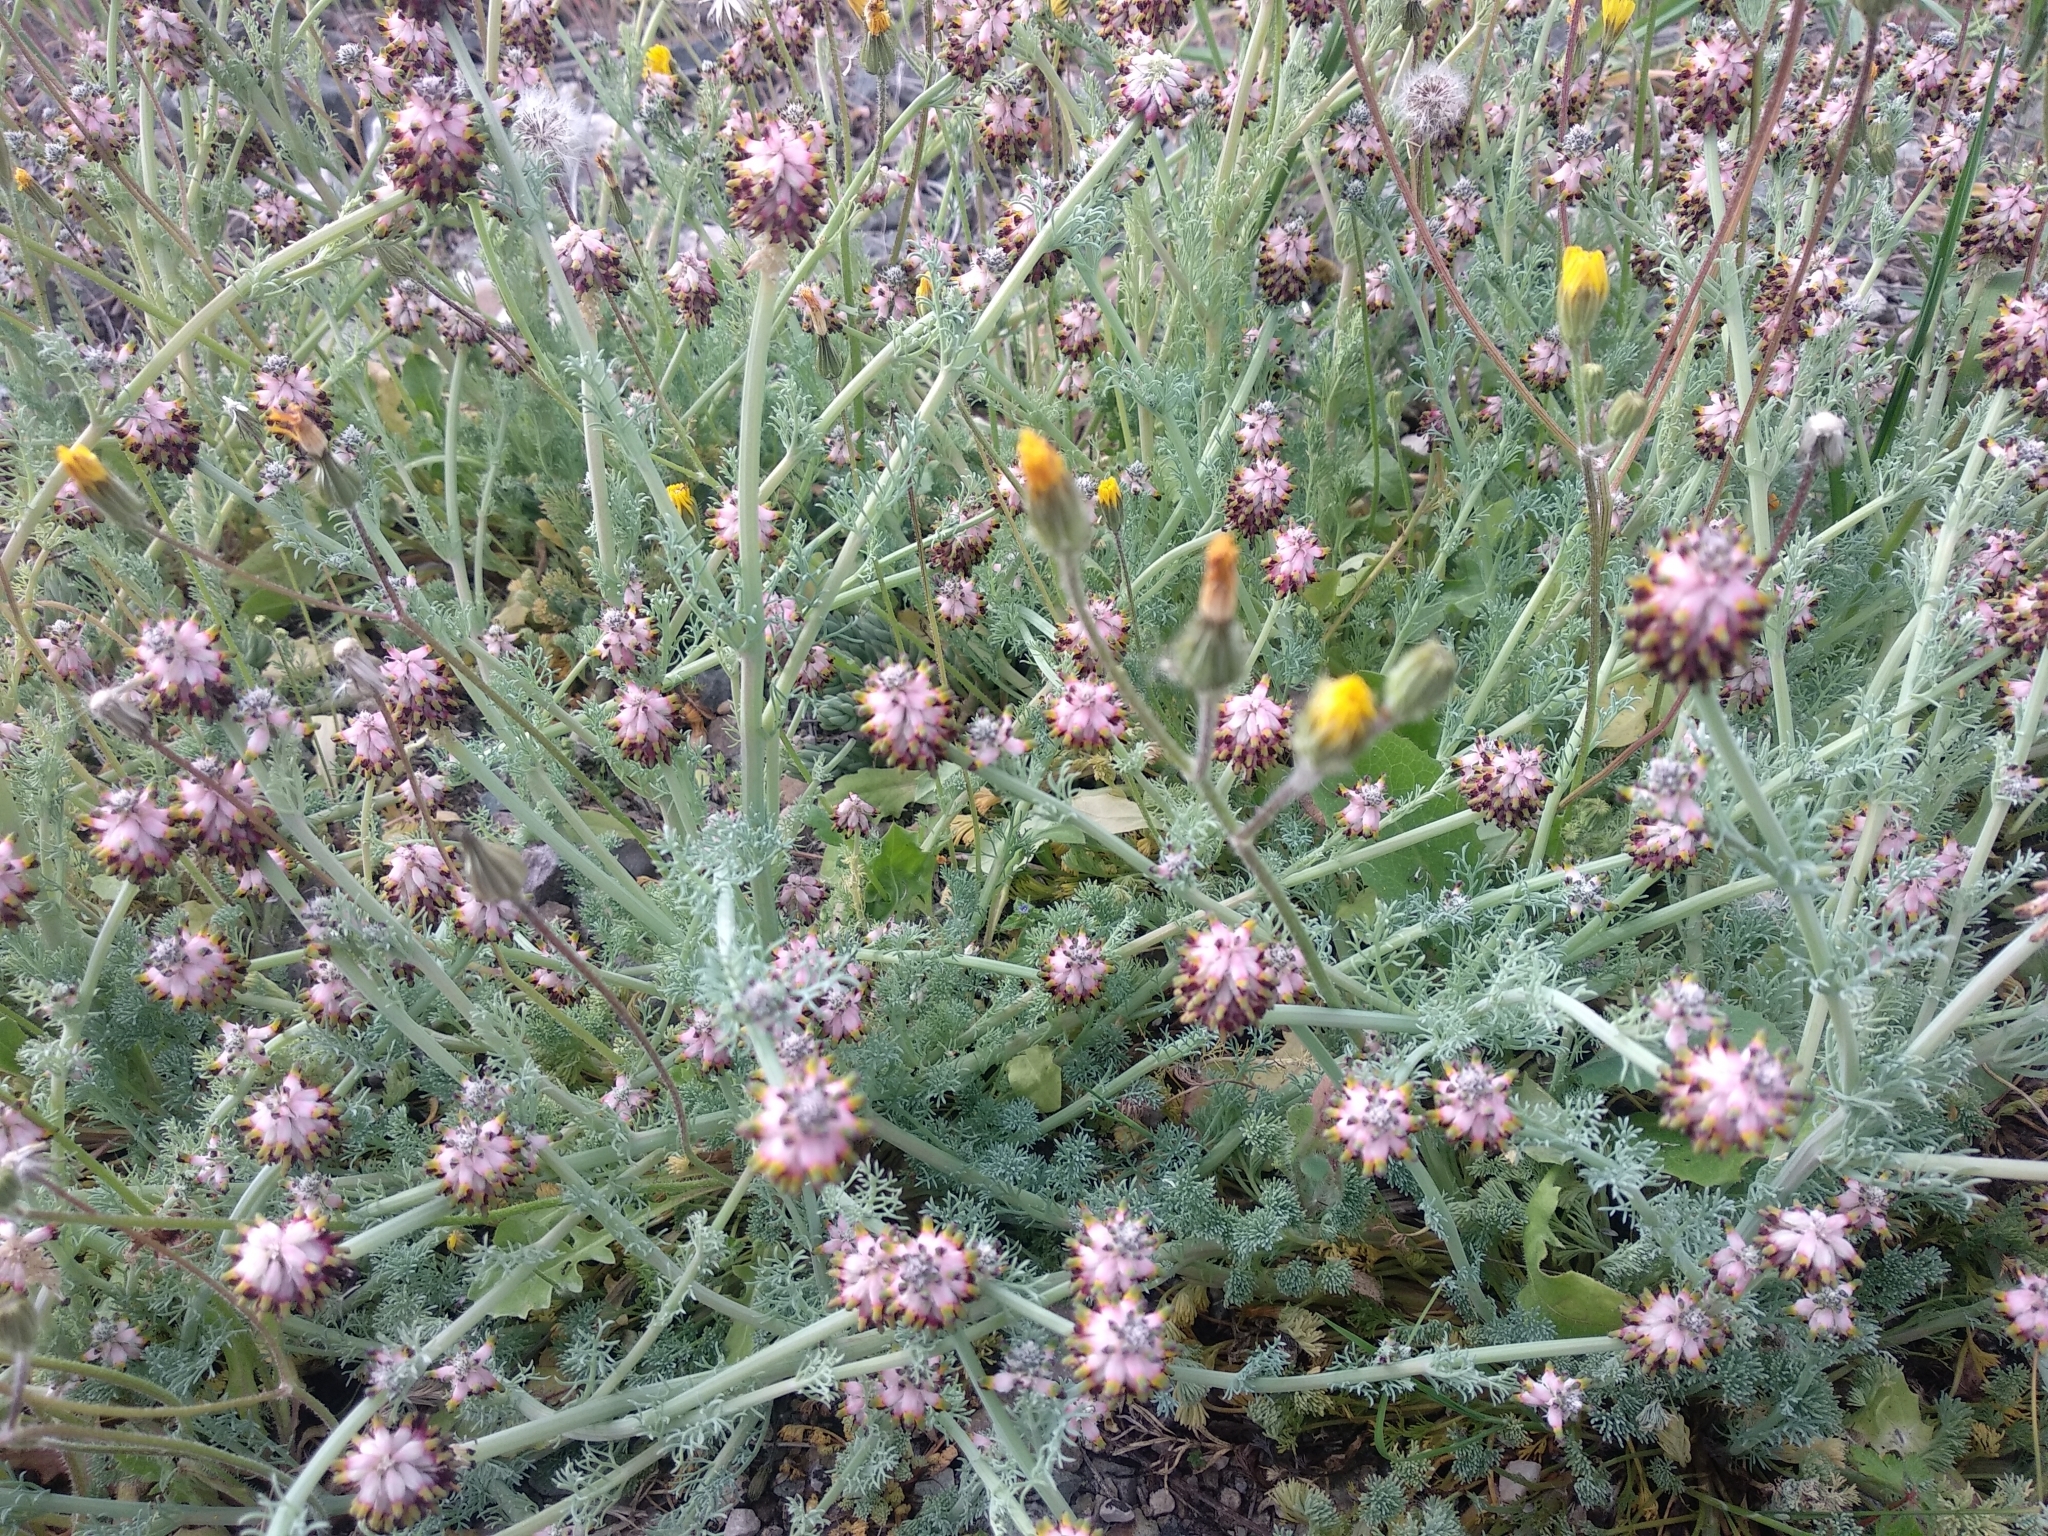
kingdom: Plantae
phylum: Tracheophyta
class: Magnoliopsida
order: Ranunculales
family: Papaveraceae
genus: Platycapnos
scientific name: Platycapnos spicata
